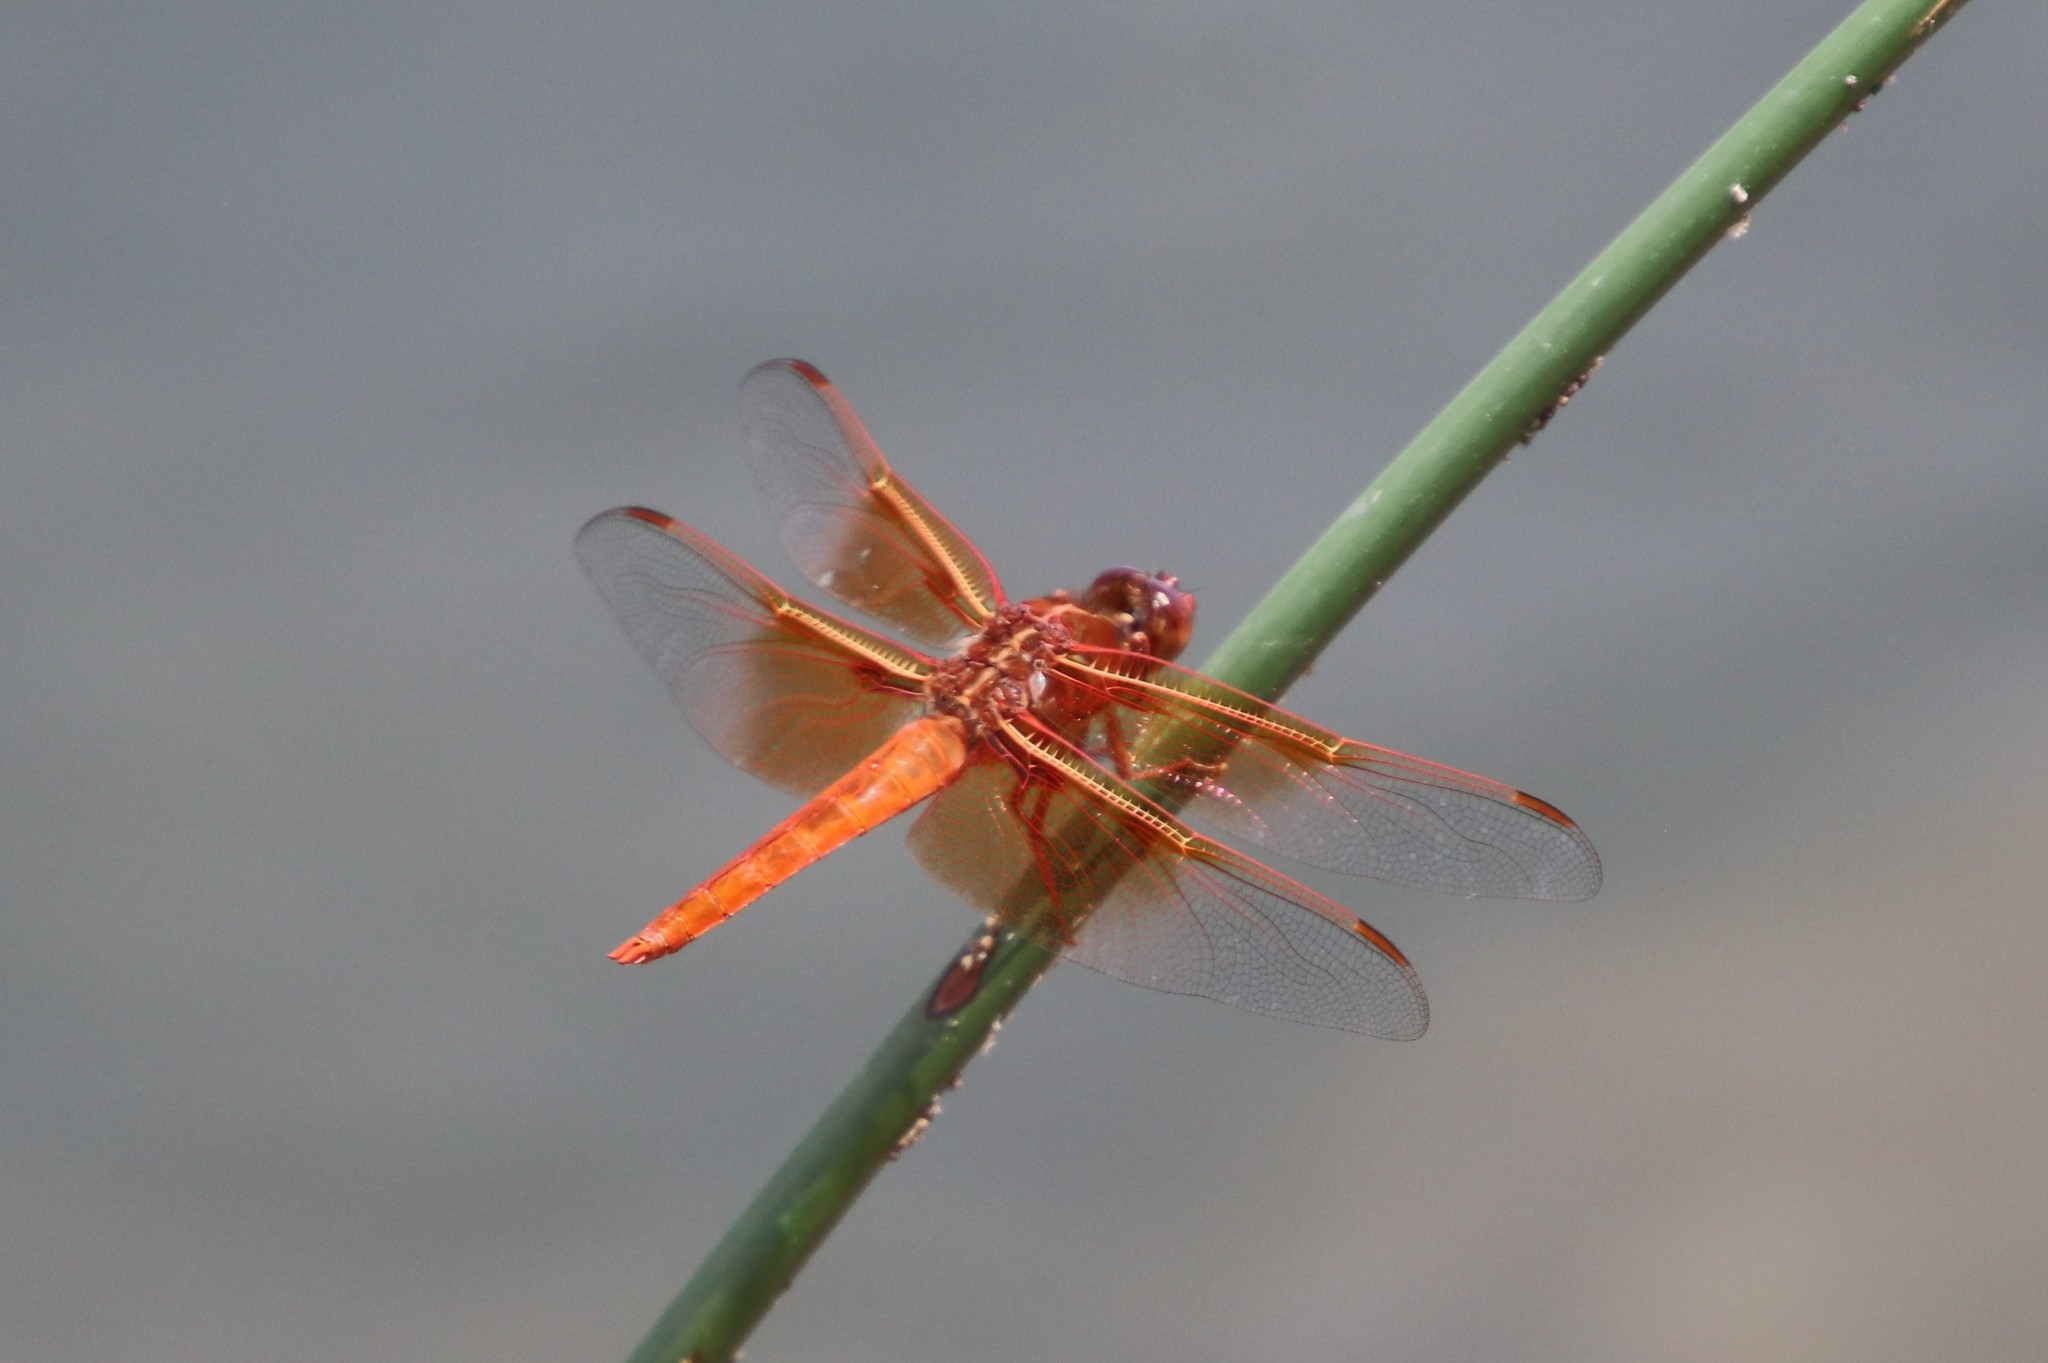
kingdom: Animalia
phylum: Arthropoda
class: Insecta
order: Odonata
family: Libellulidae
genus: Libellula
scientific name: Libellula saturata
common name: Flame skimmer
